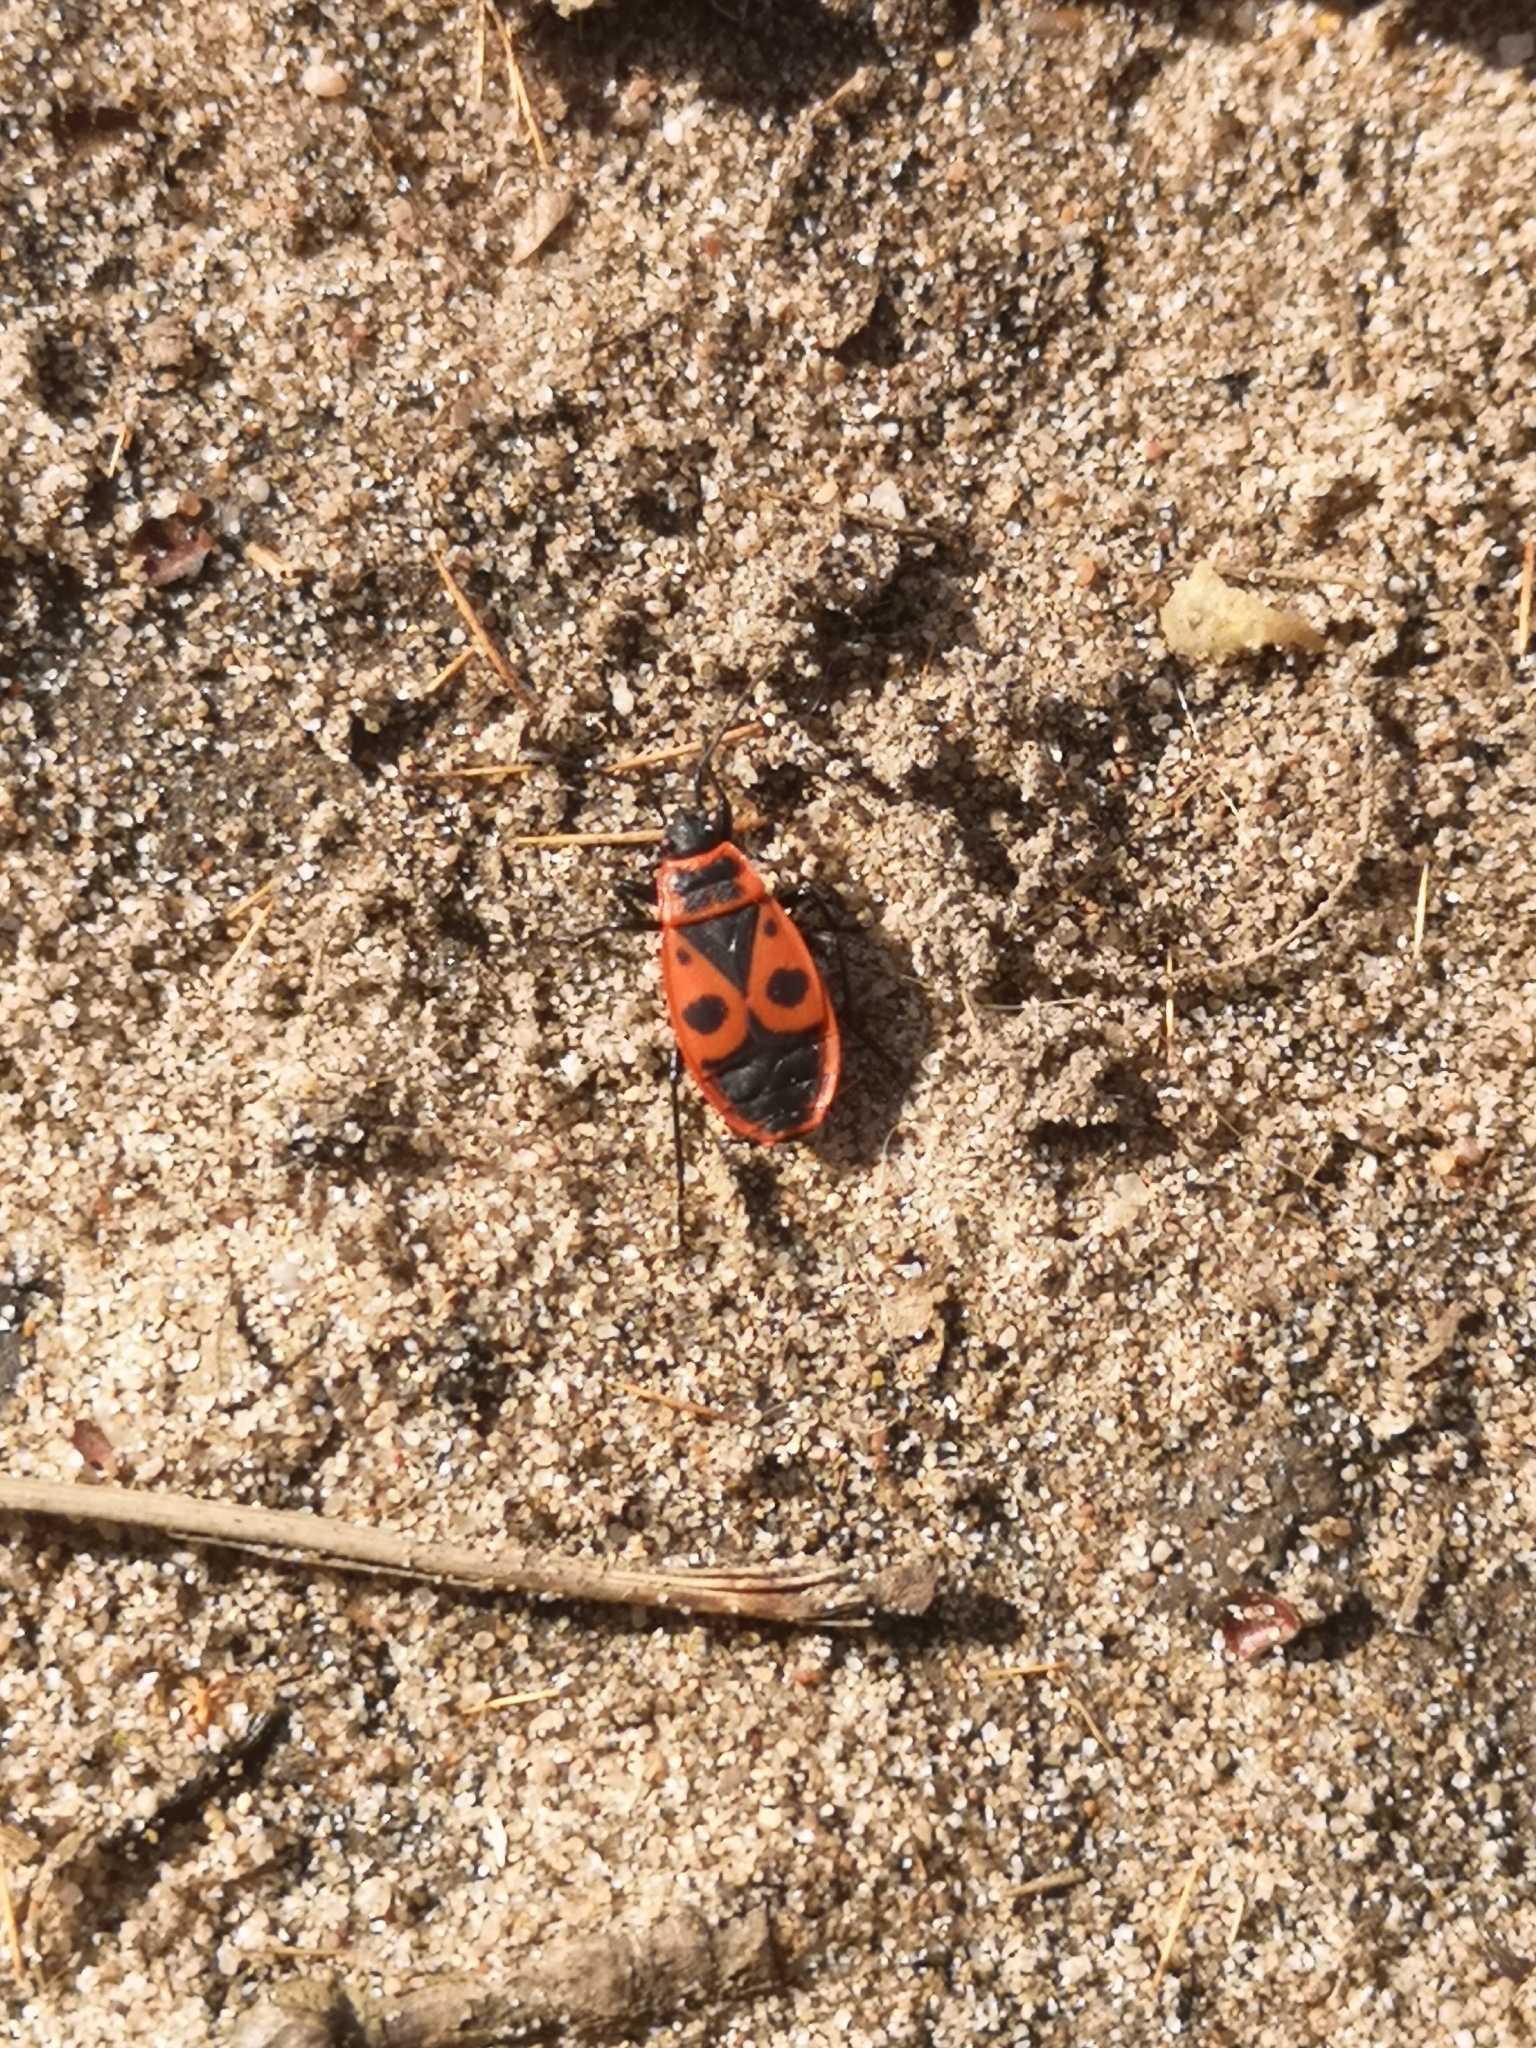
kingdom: Animalia
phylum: Arthropoda
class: Insecta
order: Hemiptera
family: Pyrrhocoridae
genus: Pyrrhocoris
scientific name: Pyrrhocoris apterus
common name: Firebug
